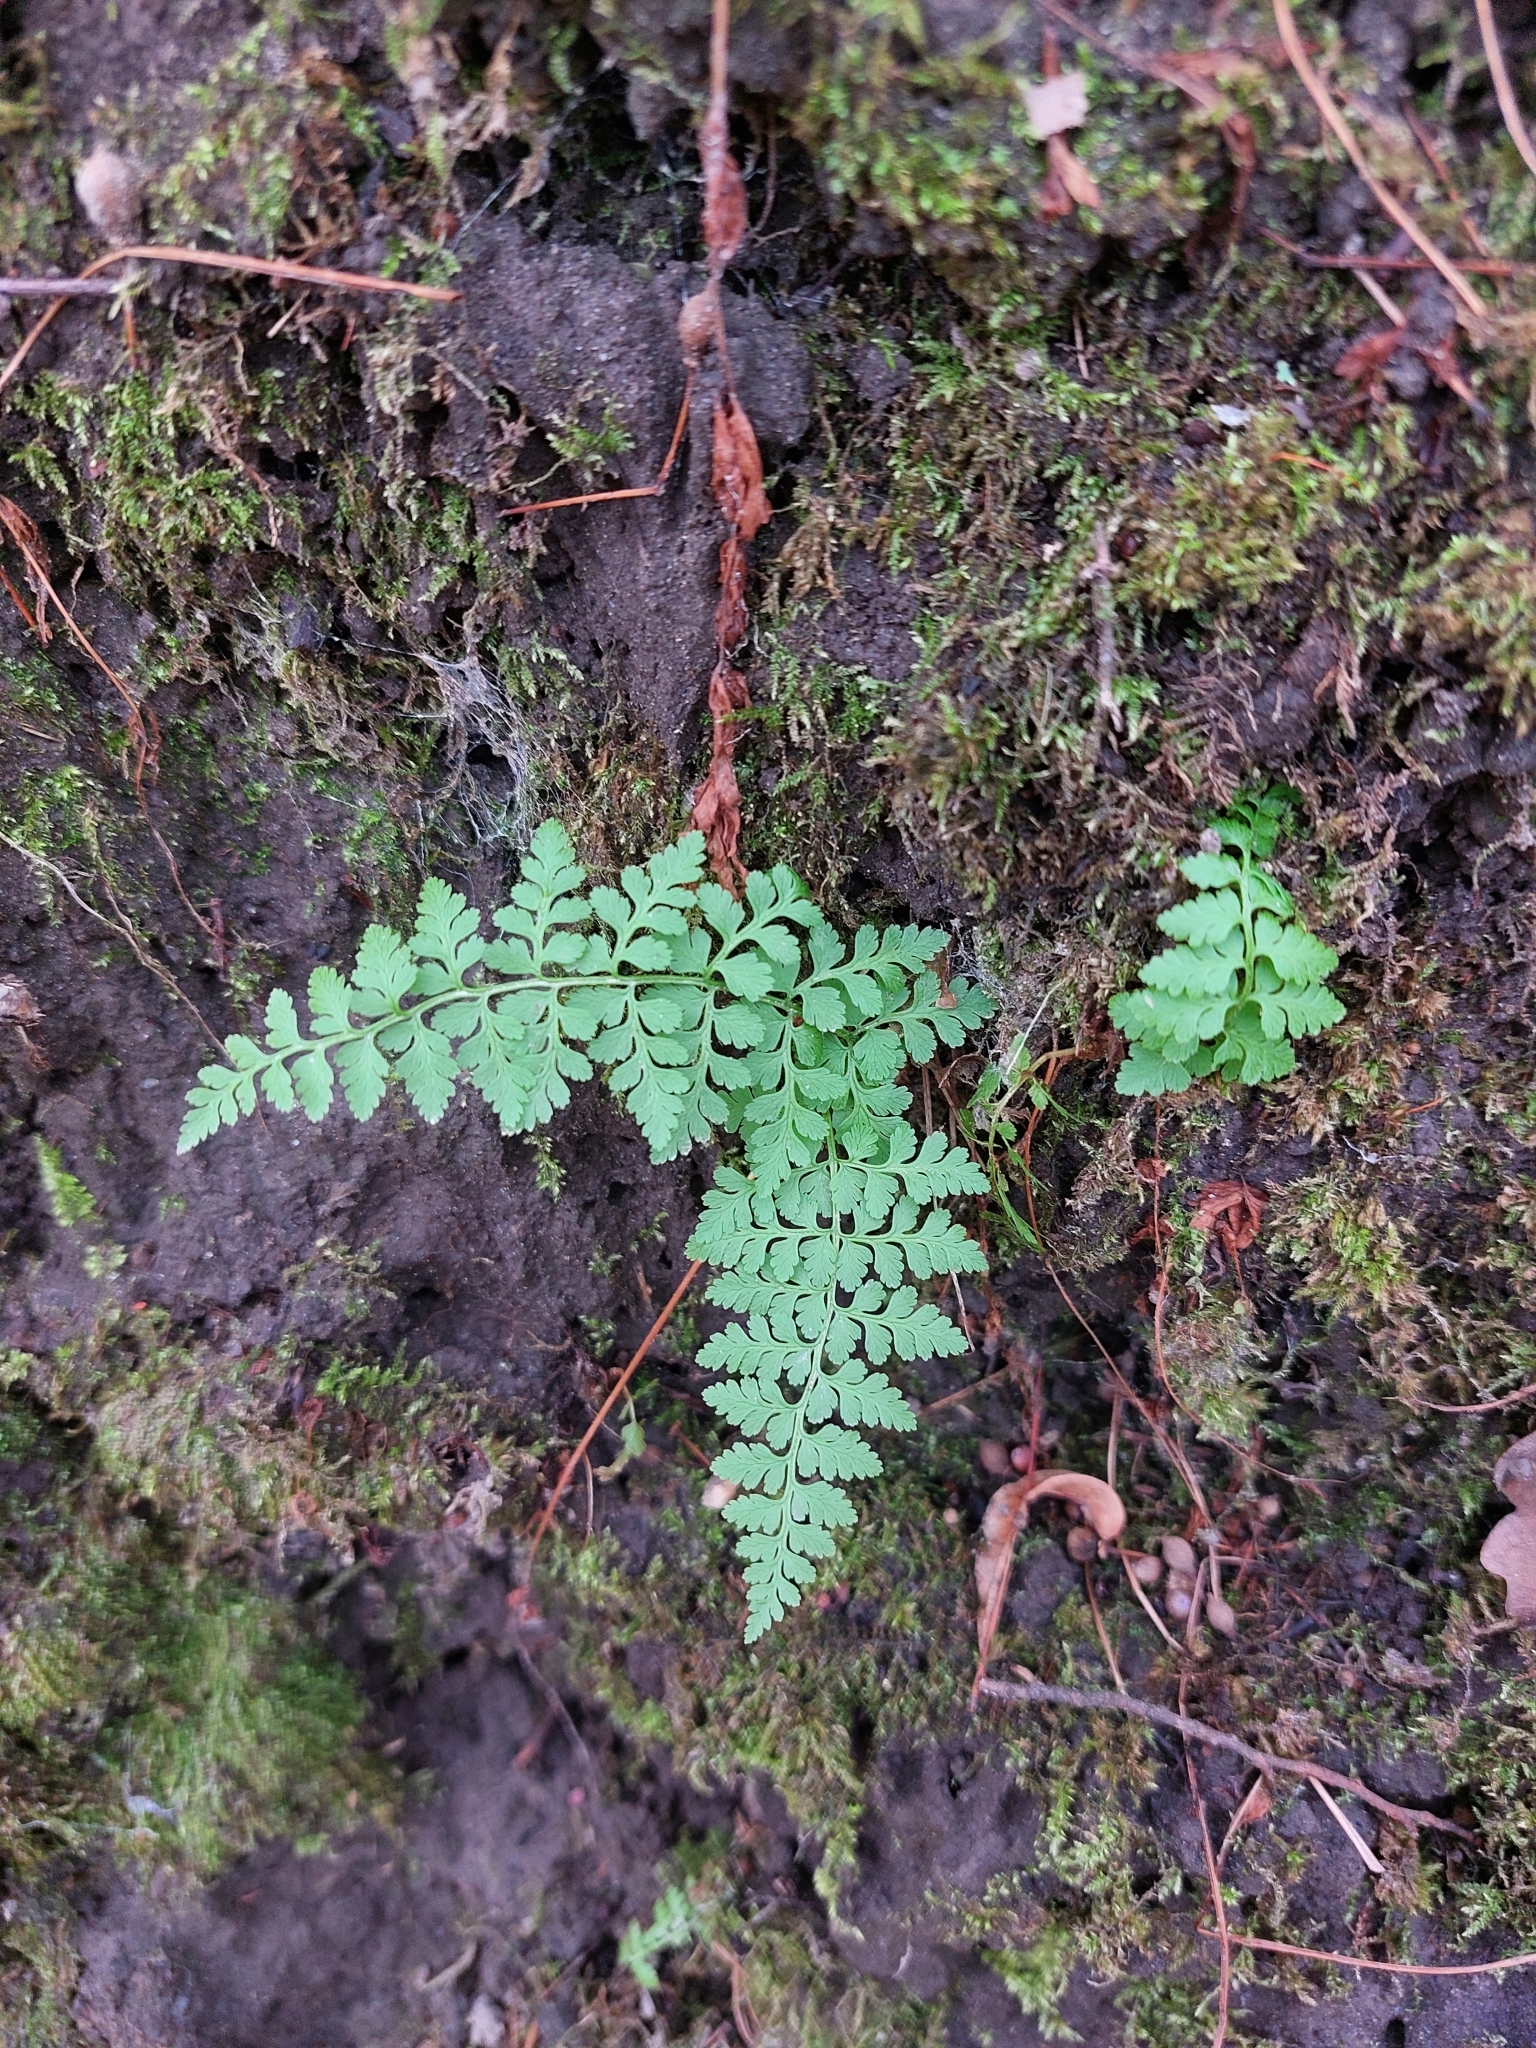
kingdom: Plantae
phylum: Tracheophyta
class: Polypodiopsida
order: Polypodiales
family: Cystopteridaceae
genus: Cystopteris
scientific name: Cystopteris fragilis
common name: Brittle bladder fern
